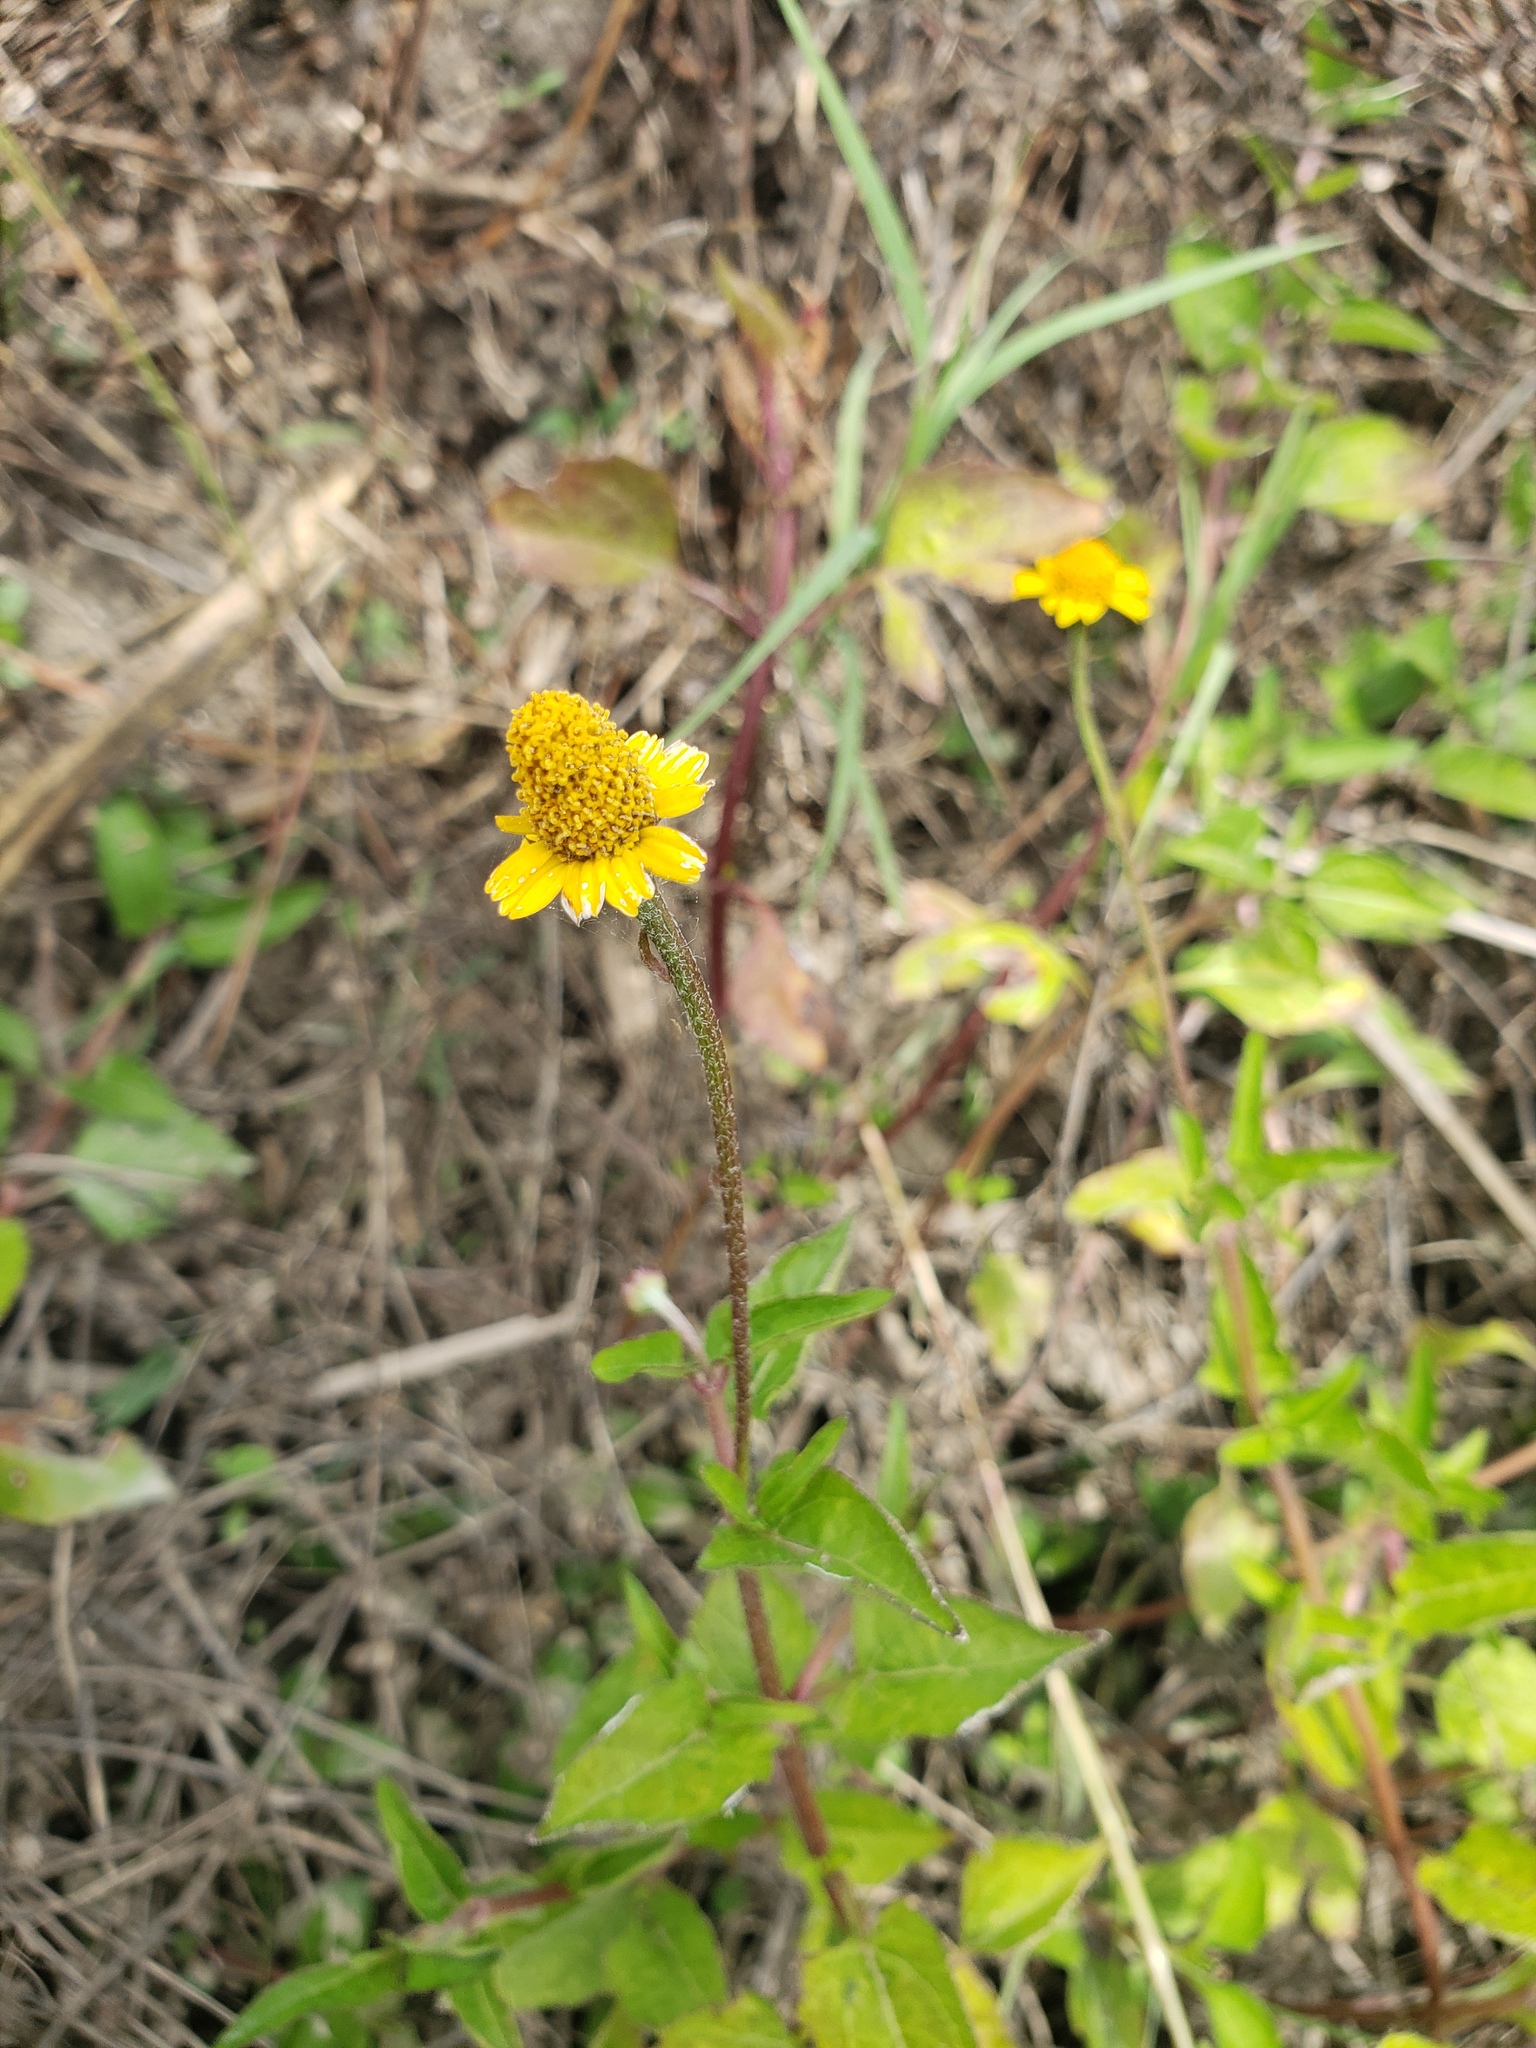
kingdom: Plantae
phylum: Tracheophyta
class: Magnoliopsida
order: Asterales
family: Asteraceae
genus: Acmella
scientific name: Acmella repens
